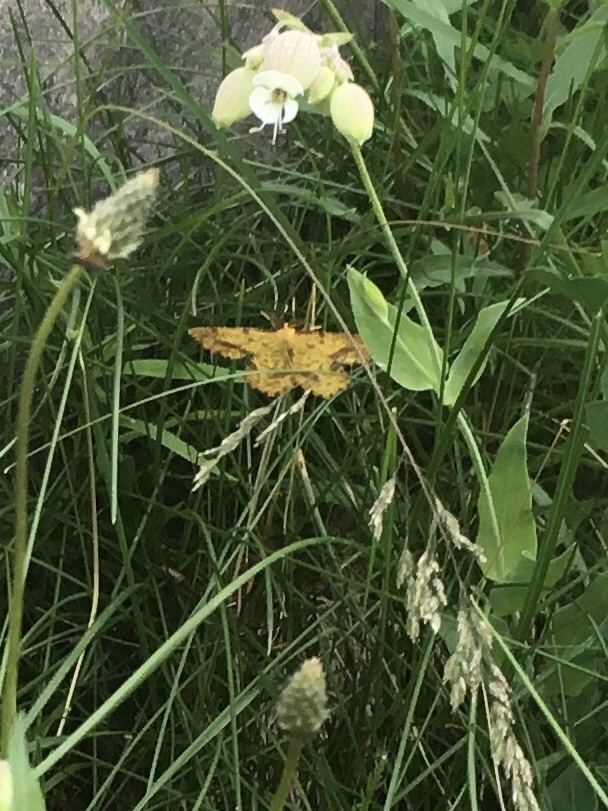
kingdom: Animalia
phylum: Arthropoda
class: Insecta
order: Lepidoptera
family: Geometridae
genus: Xanthotype
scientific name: Xanthotype
